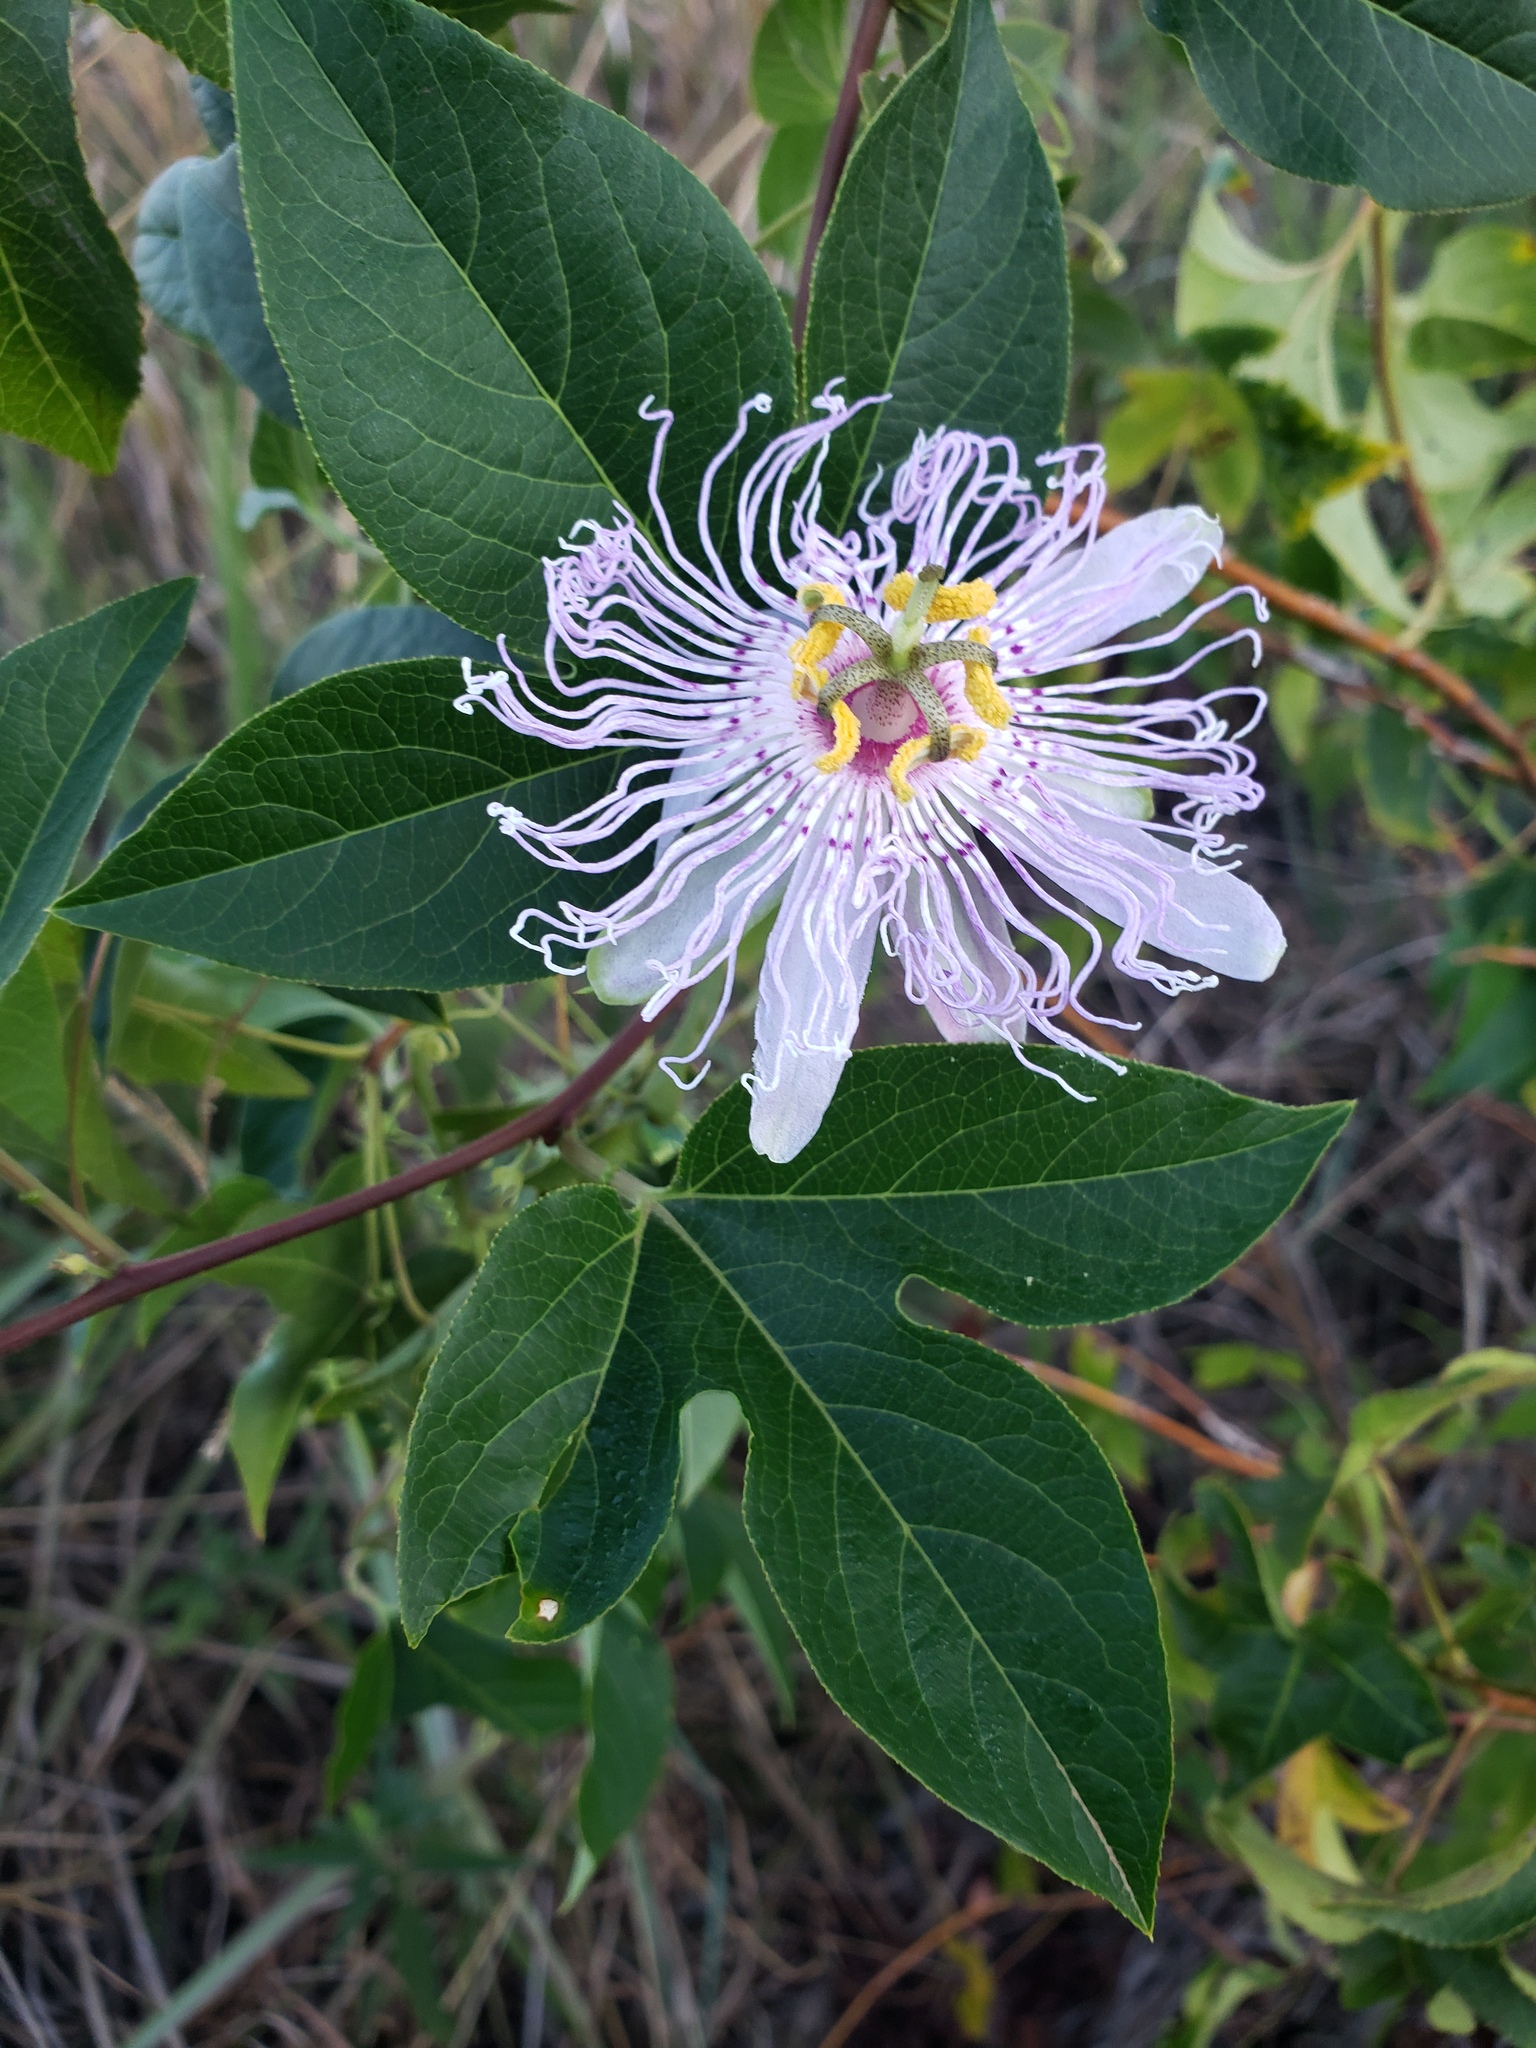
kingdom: Plantae
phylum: Tracheophyta
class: Magnoliopsida
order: Malpighiales
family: Passifloraceae
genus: Passiflora
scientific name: Passiflora incarnata
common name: Apricot-vine
